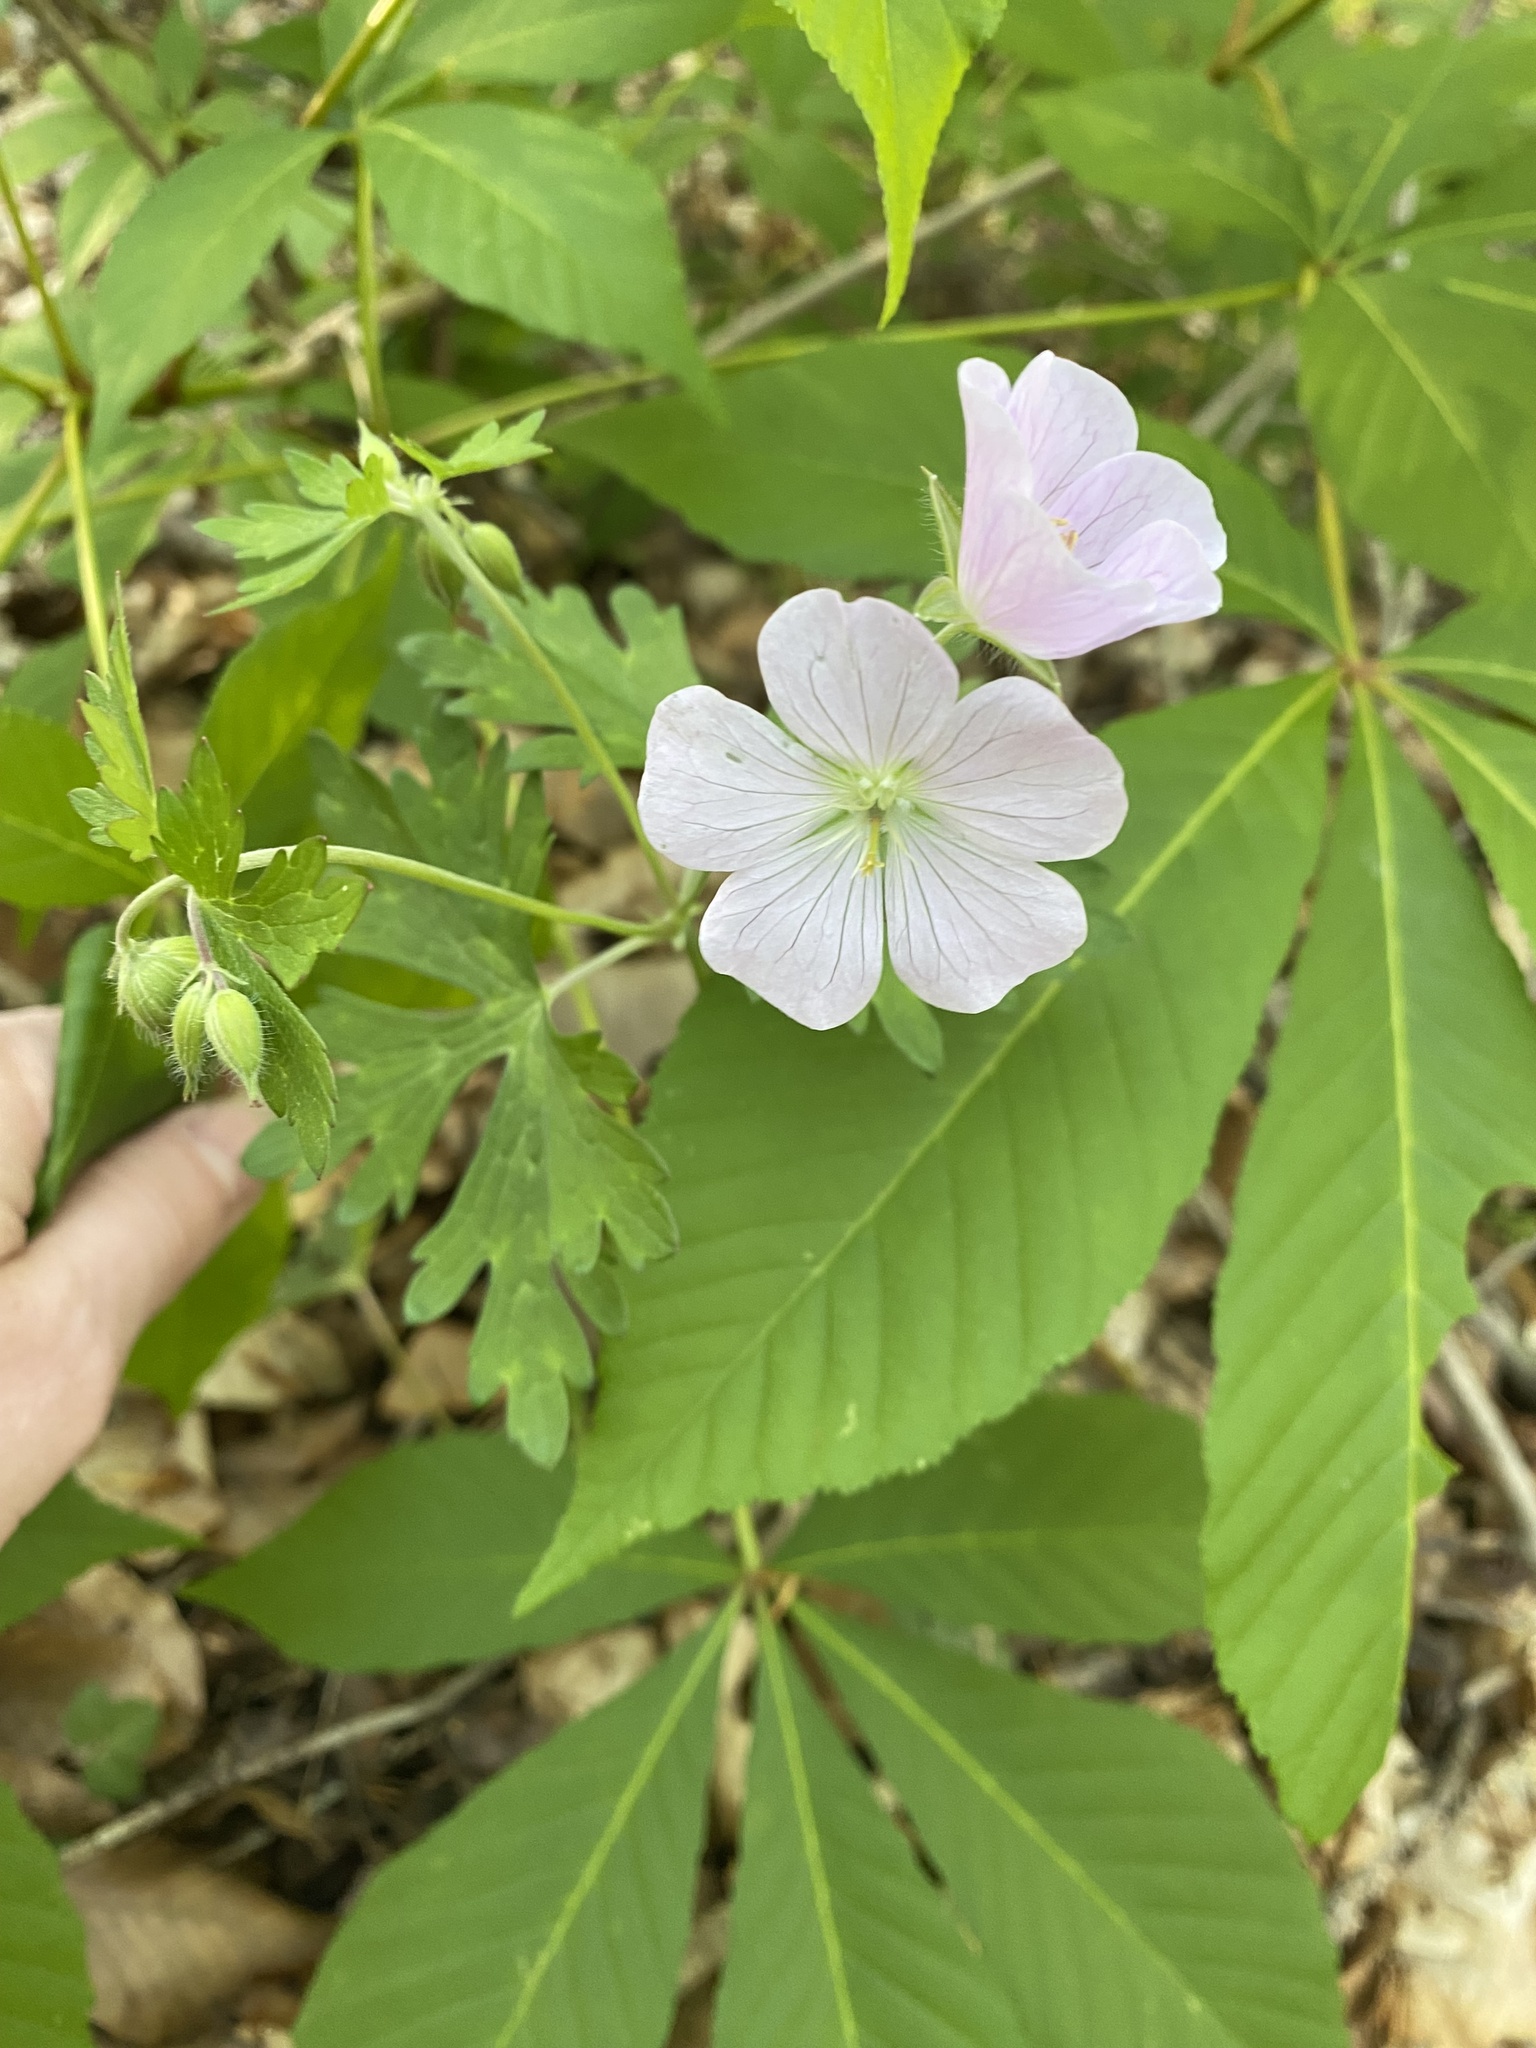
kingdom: Plantae
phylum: Tracheophyta
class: Magnoliopsida
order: Geraniales
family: Geraniaceae
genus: Geranium
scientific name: Geranium maculatum
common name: Spotted geranium
